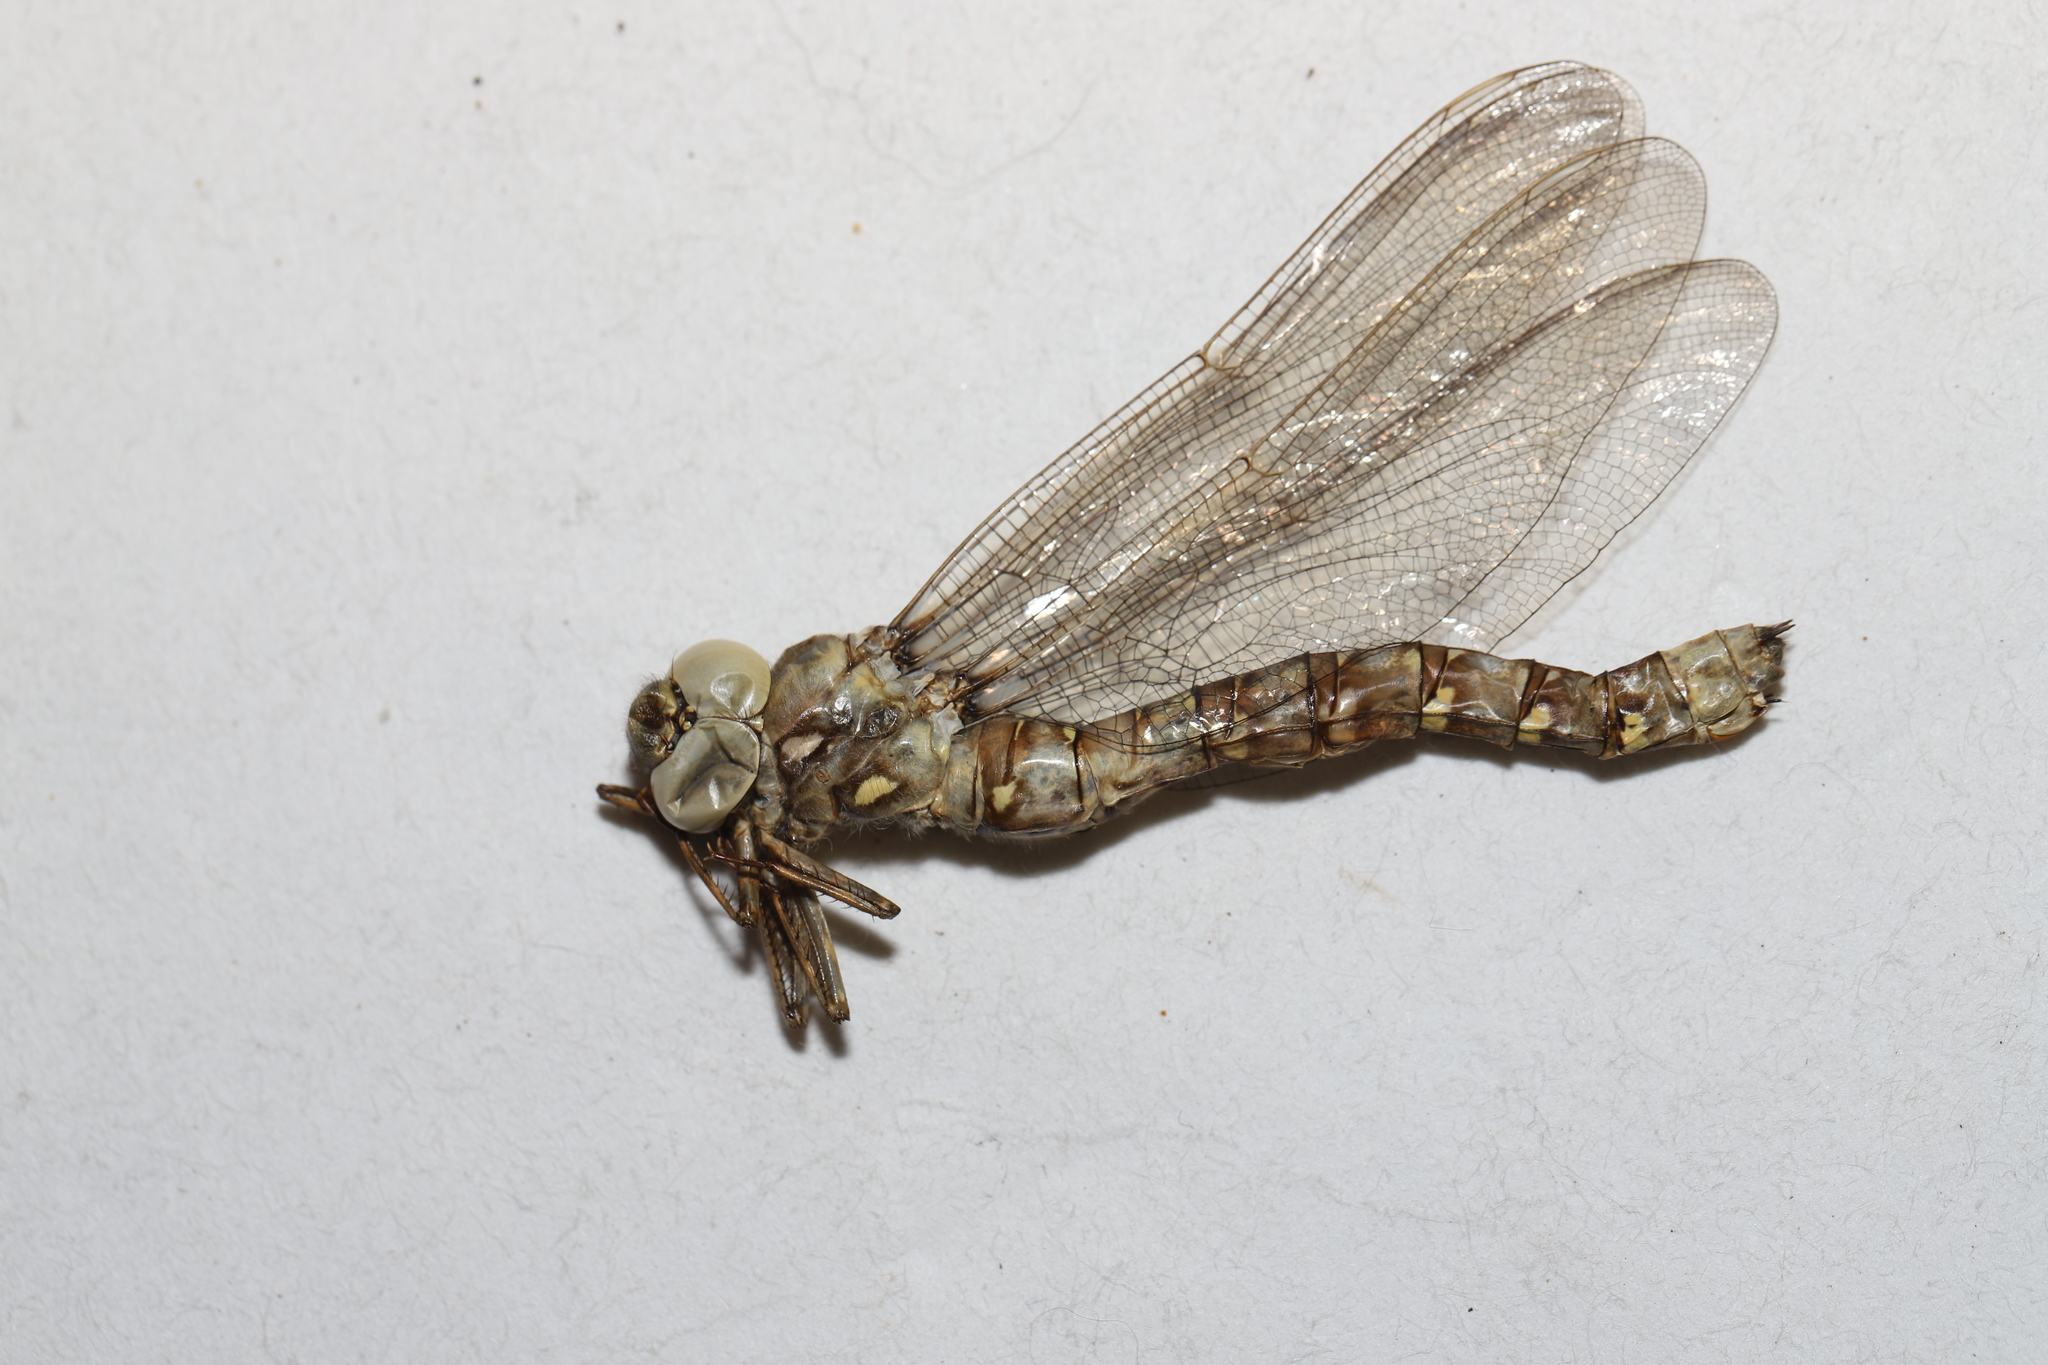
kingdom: Animalia
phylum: Arthropoda
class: Insecta
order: Odonata
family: Aeshnidae
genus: Boyeria
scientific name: Boyeria grafiana
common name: Ocellated darner
